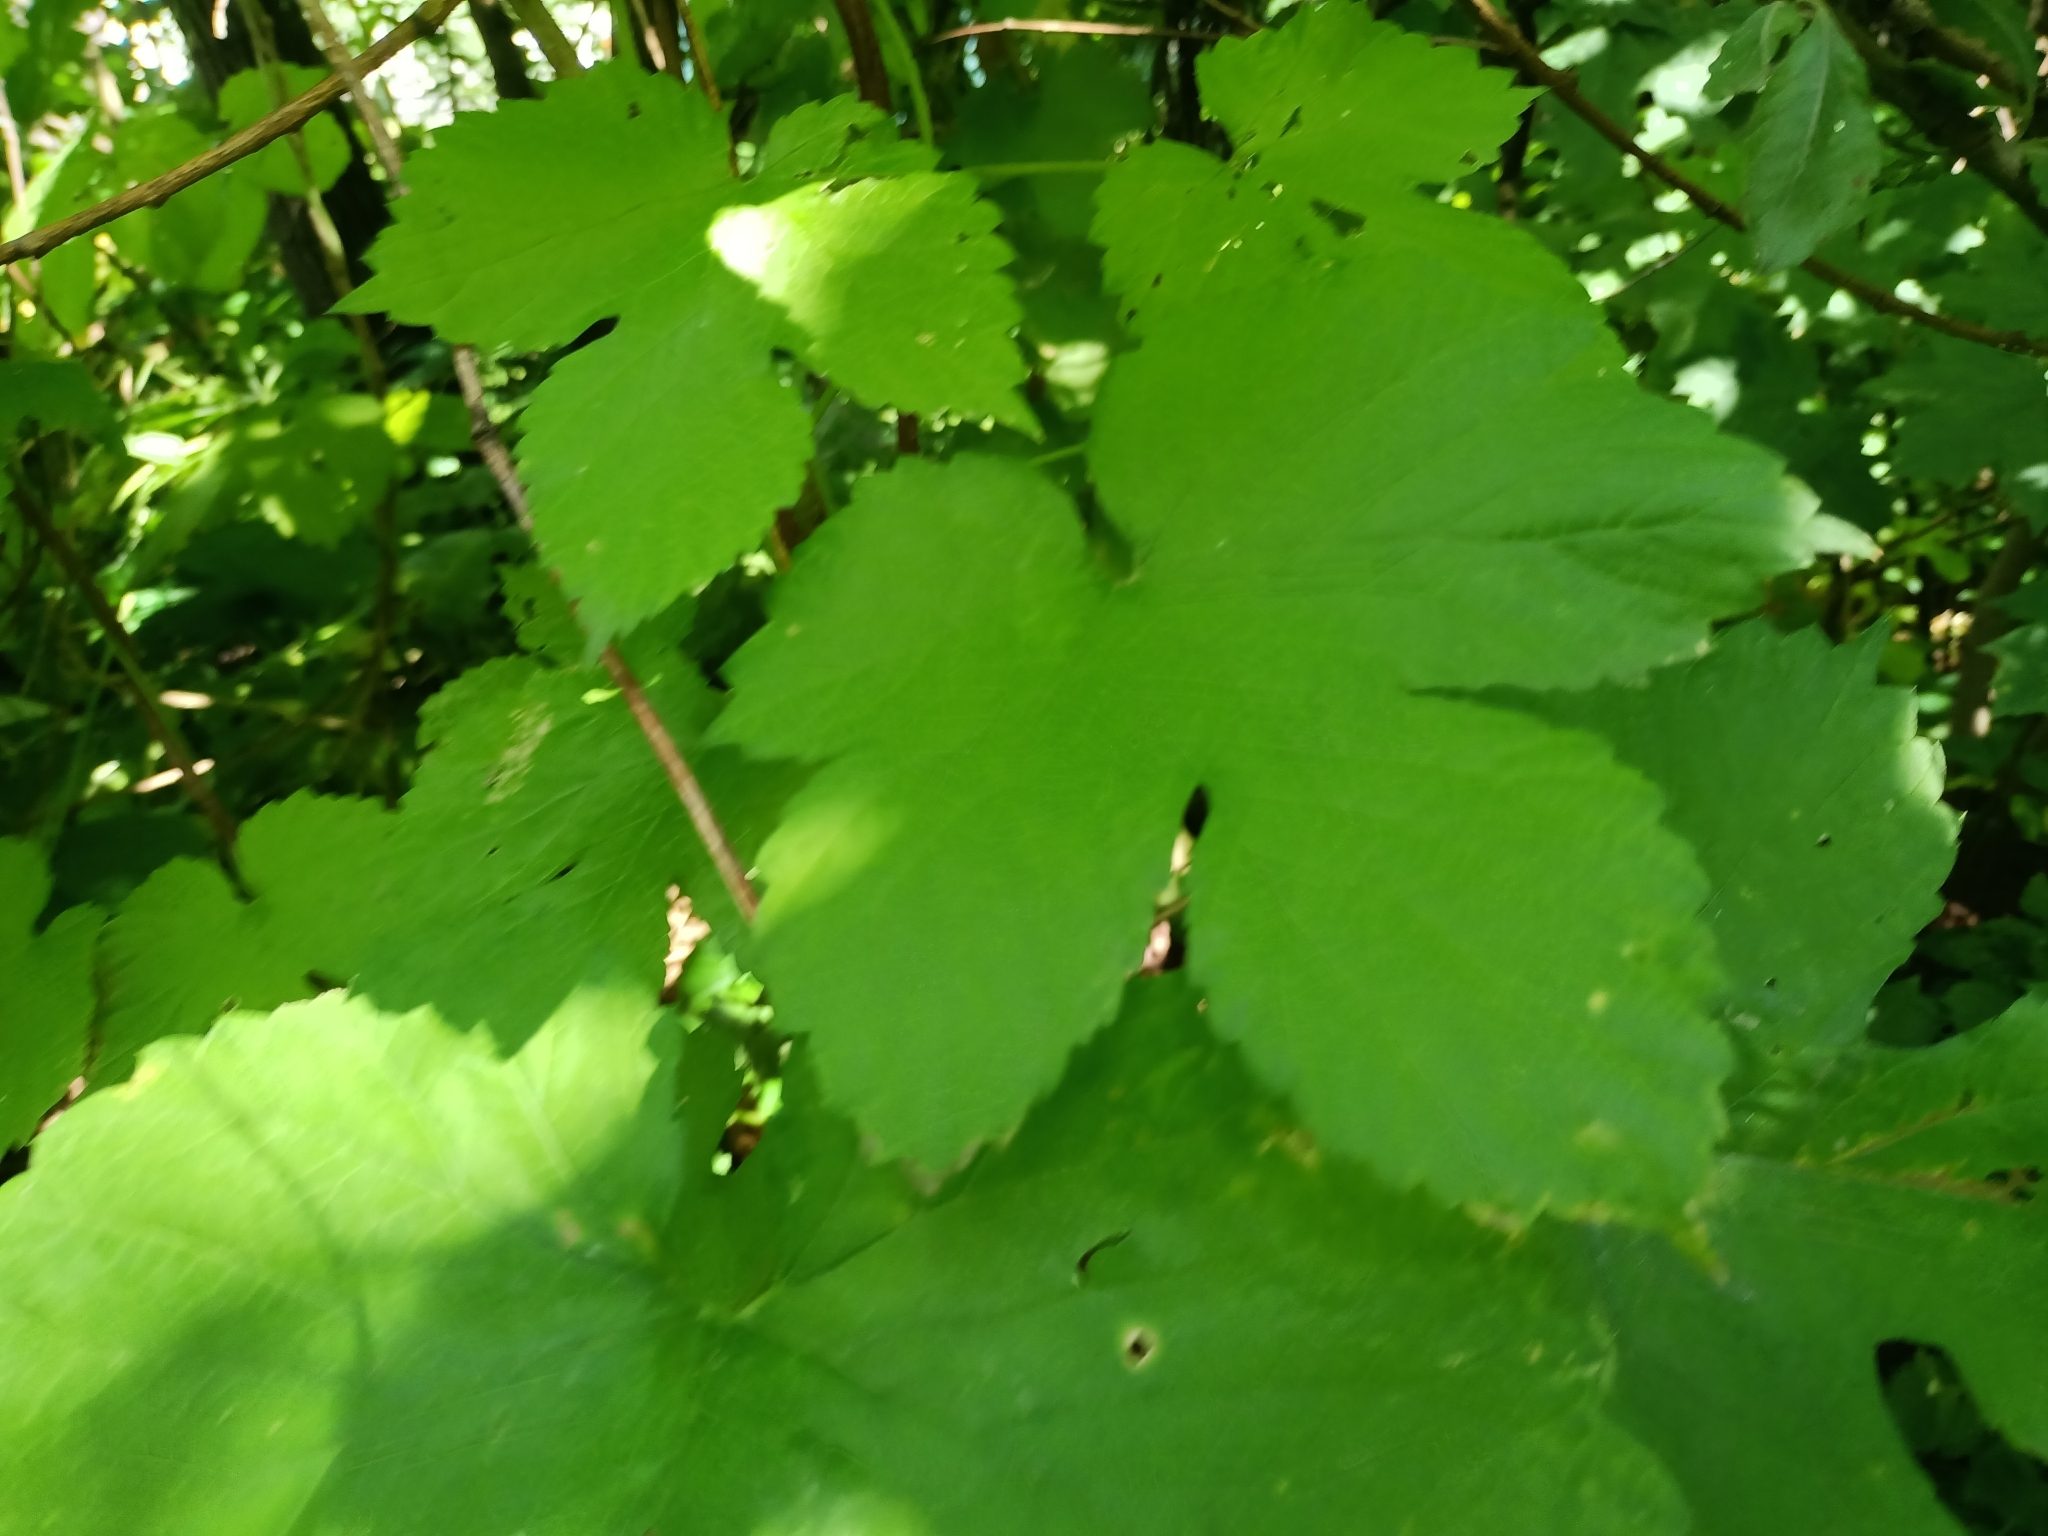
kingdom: Plantae
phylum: Tracheophyta
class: Magnoliopsida
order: Rosales
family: Cannabaceae
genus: Humulus
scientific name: Humulus lupulus
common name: Hop
